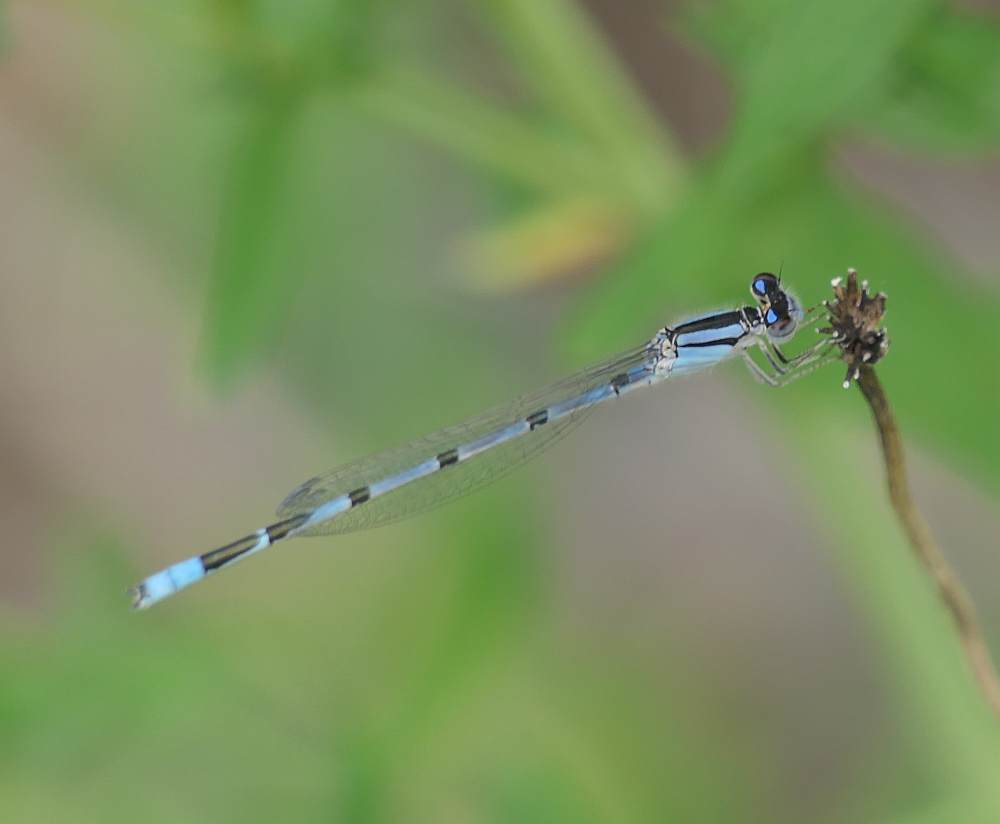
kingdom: Animalia
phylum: Arthropoda
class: Insecta
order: Odonata
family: Coenagrionidae
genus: Enallagma
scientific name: Enallagma civile
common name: Damselfly
